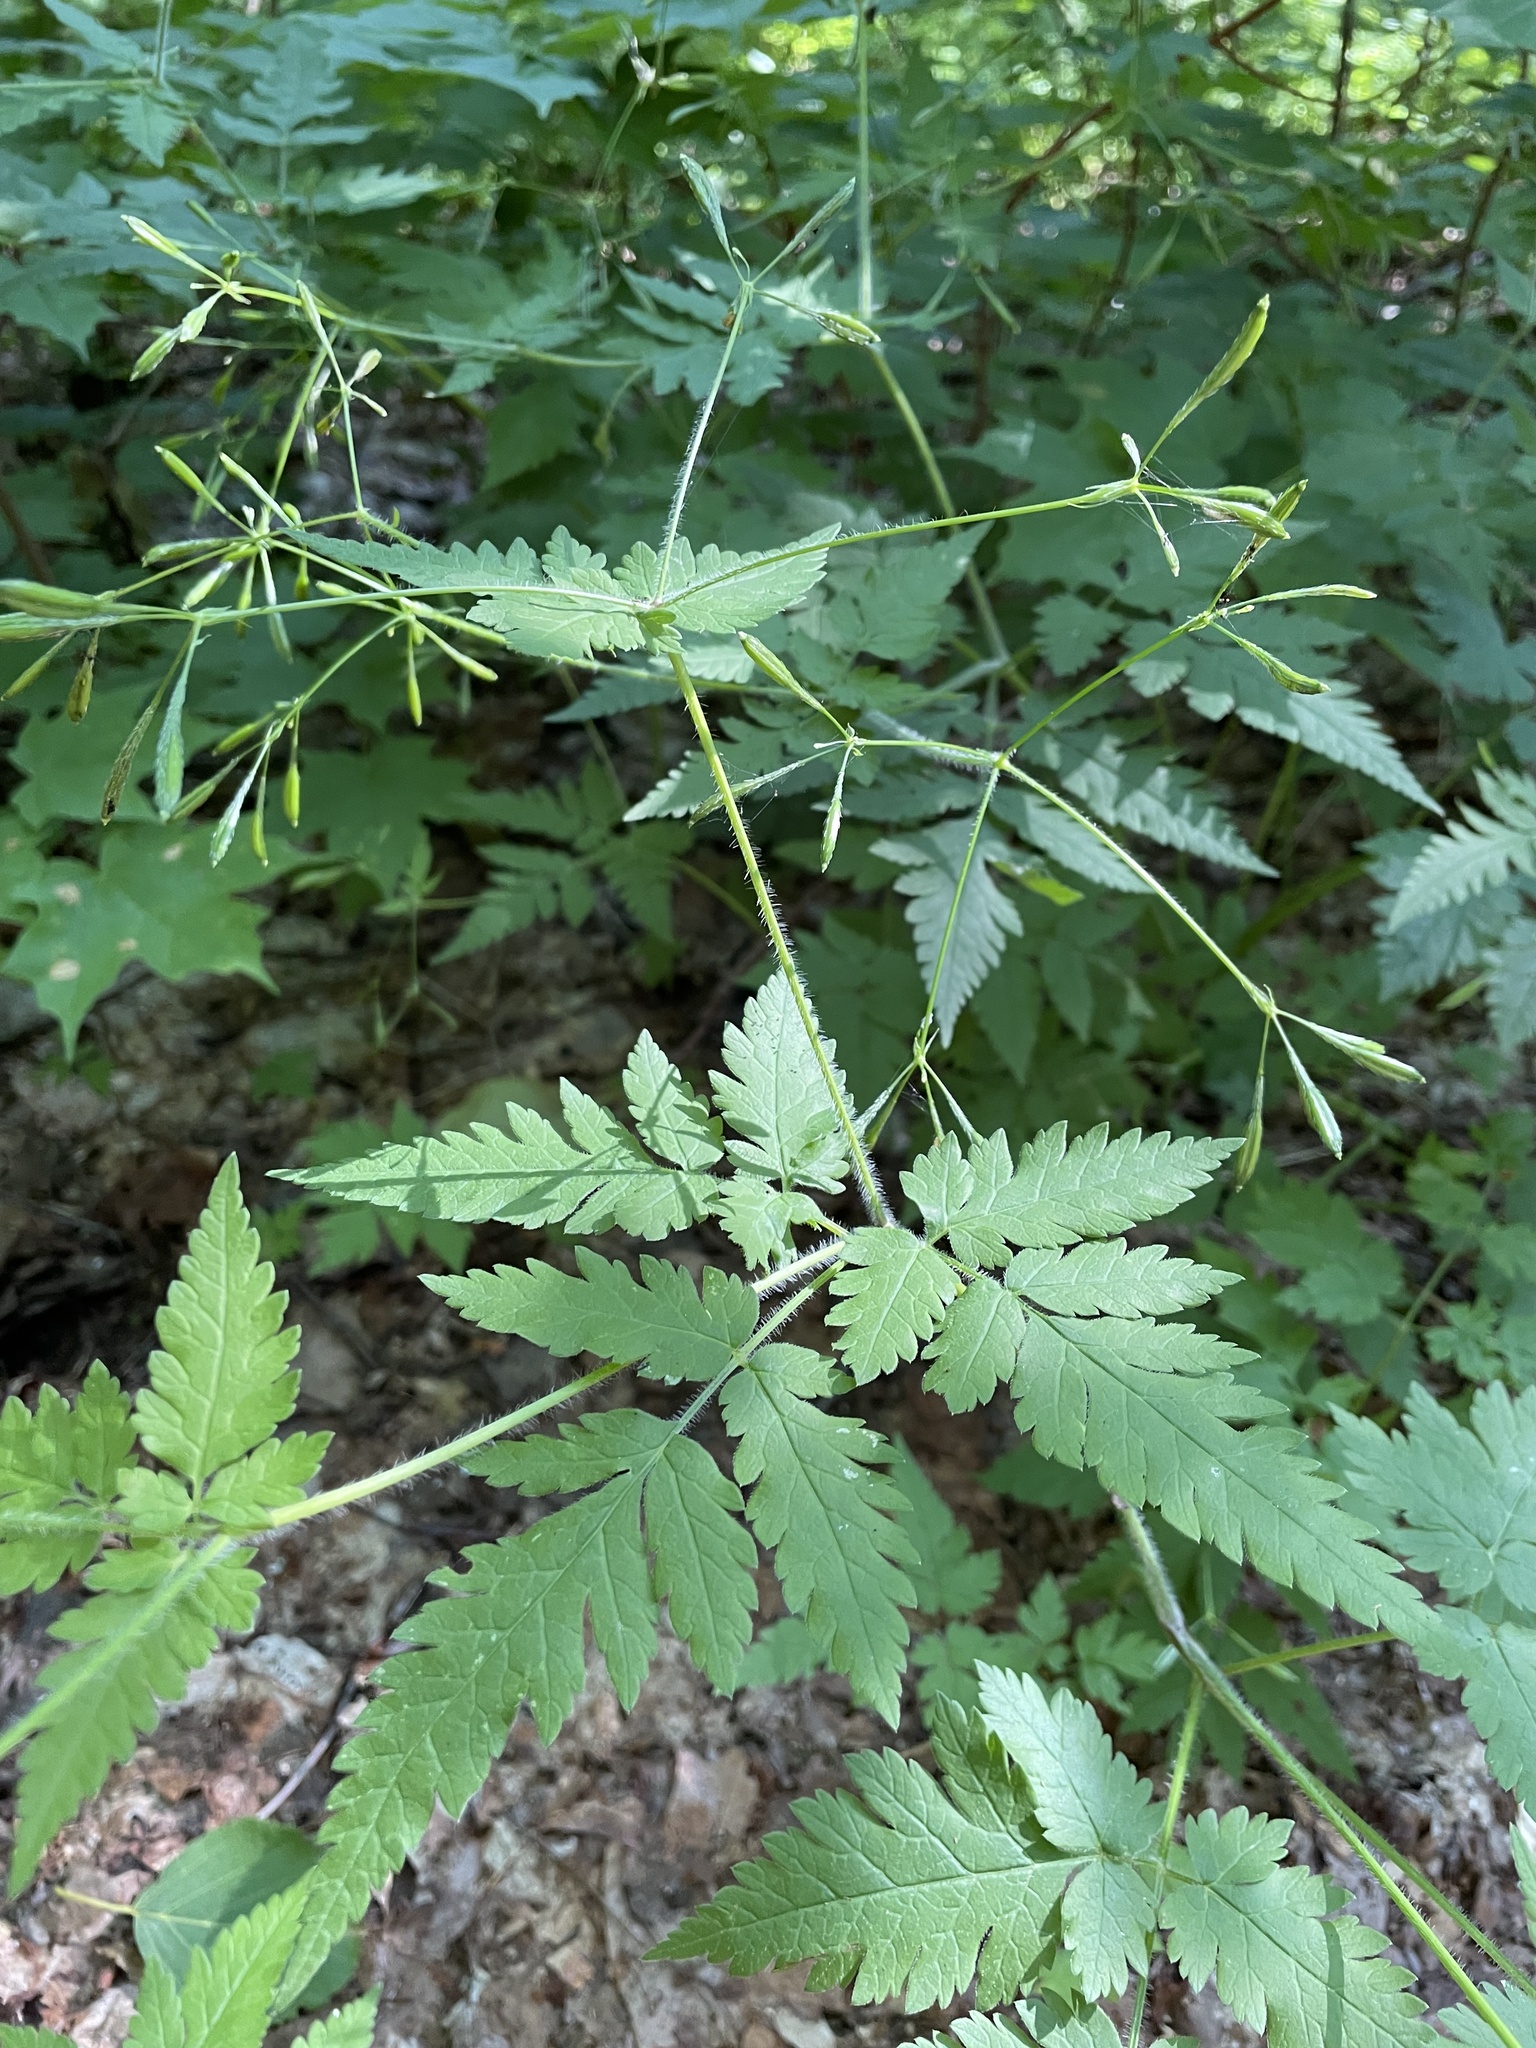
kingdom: Plantae
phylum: Tracheophyta
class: Magnoliopsida
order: Apiales
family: Apiaceae
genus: Osmorhiza
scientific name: Osmorhiza claytonii
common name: Hairy sweet cicely
